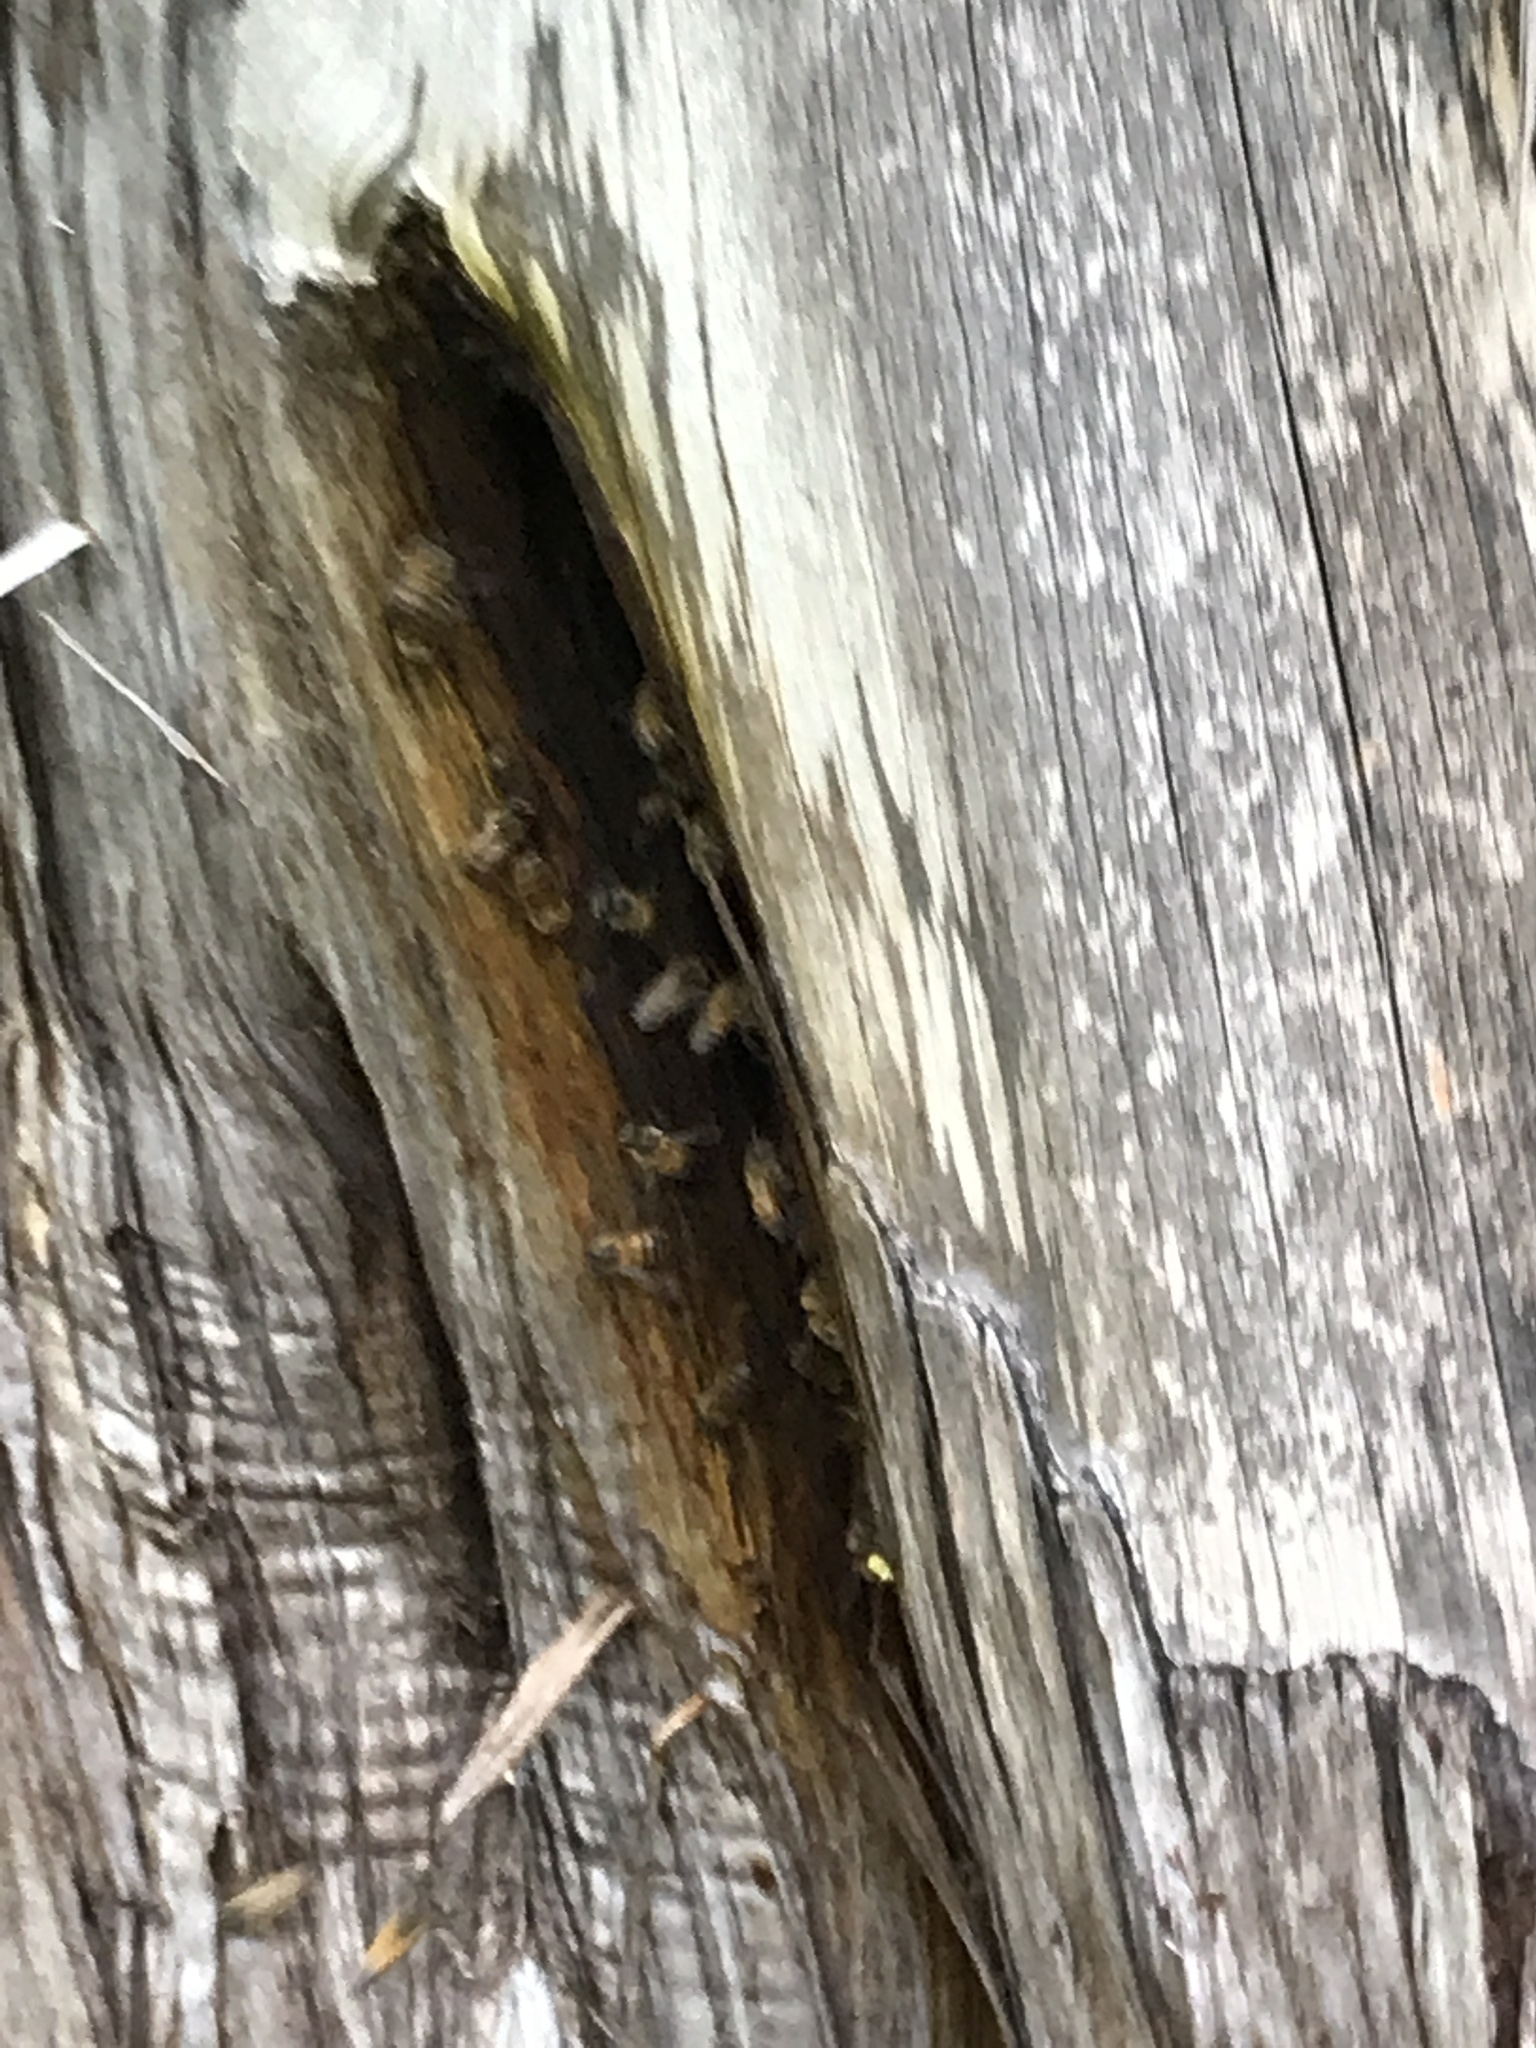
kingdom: Animalia
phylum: Arthropoda
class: Insecta
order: Hymenoptera
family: Apidae
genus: Apis
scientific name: Apis mellifera
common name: Honey bee
